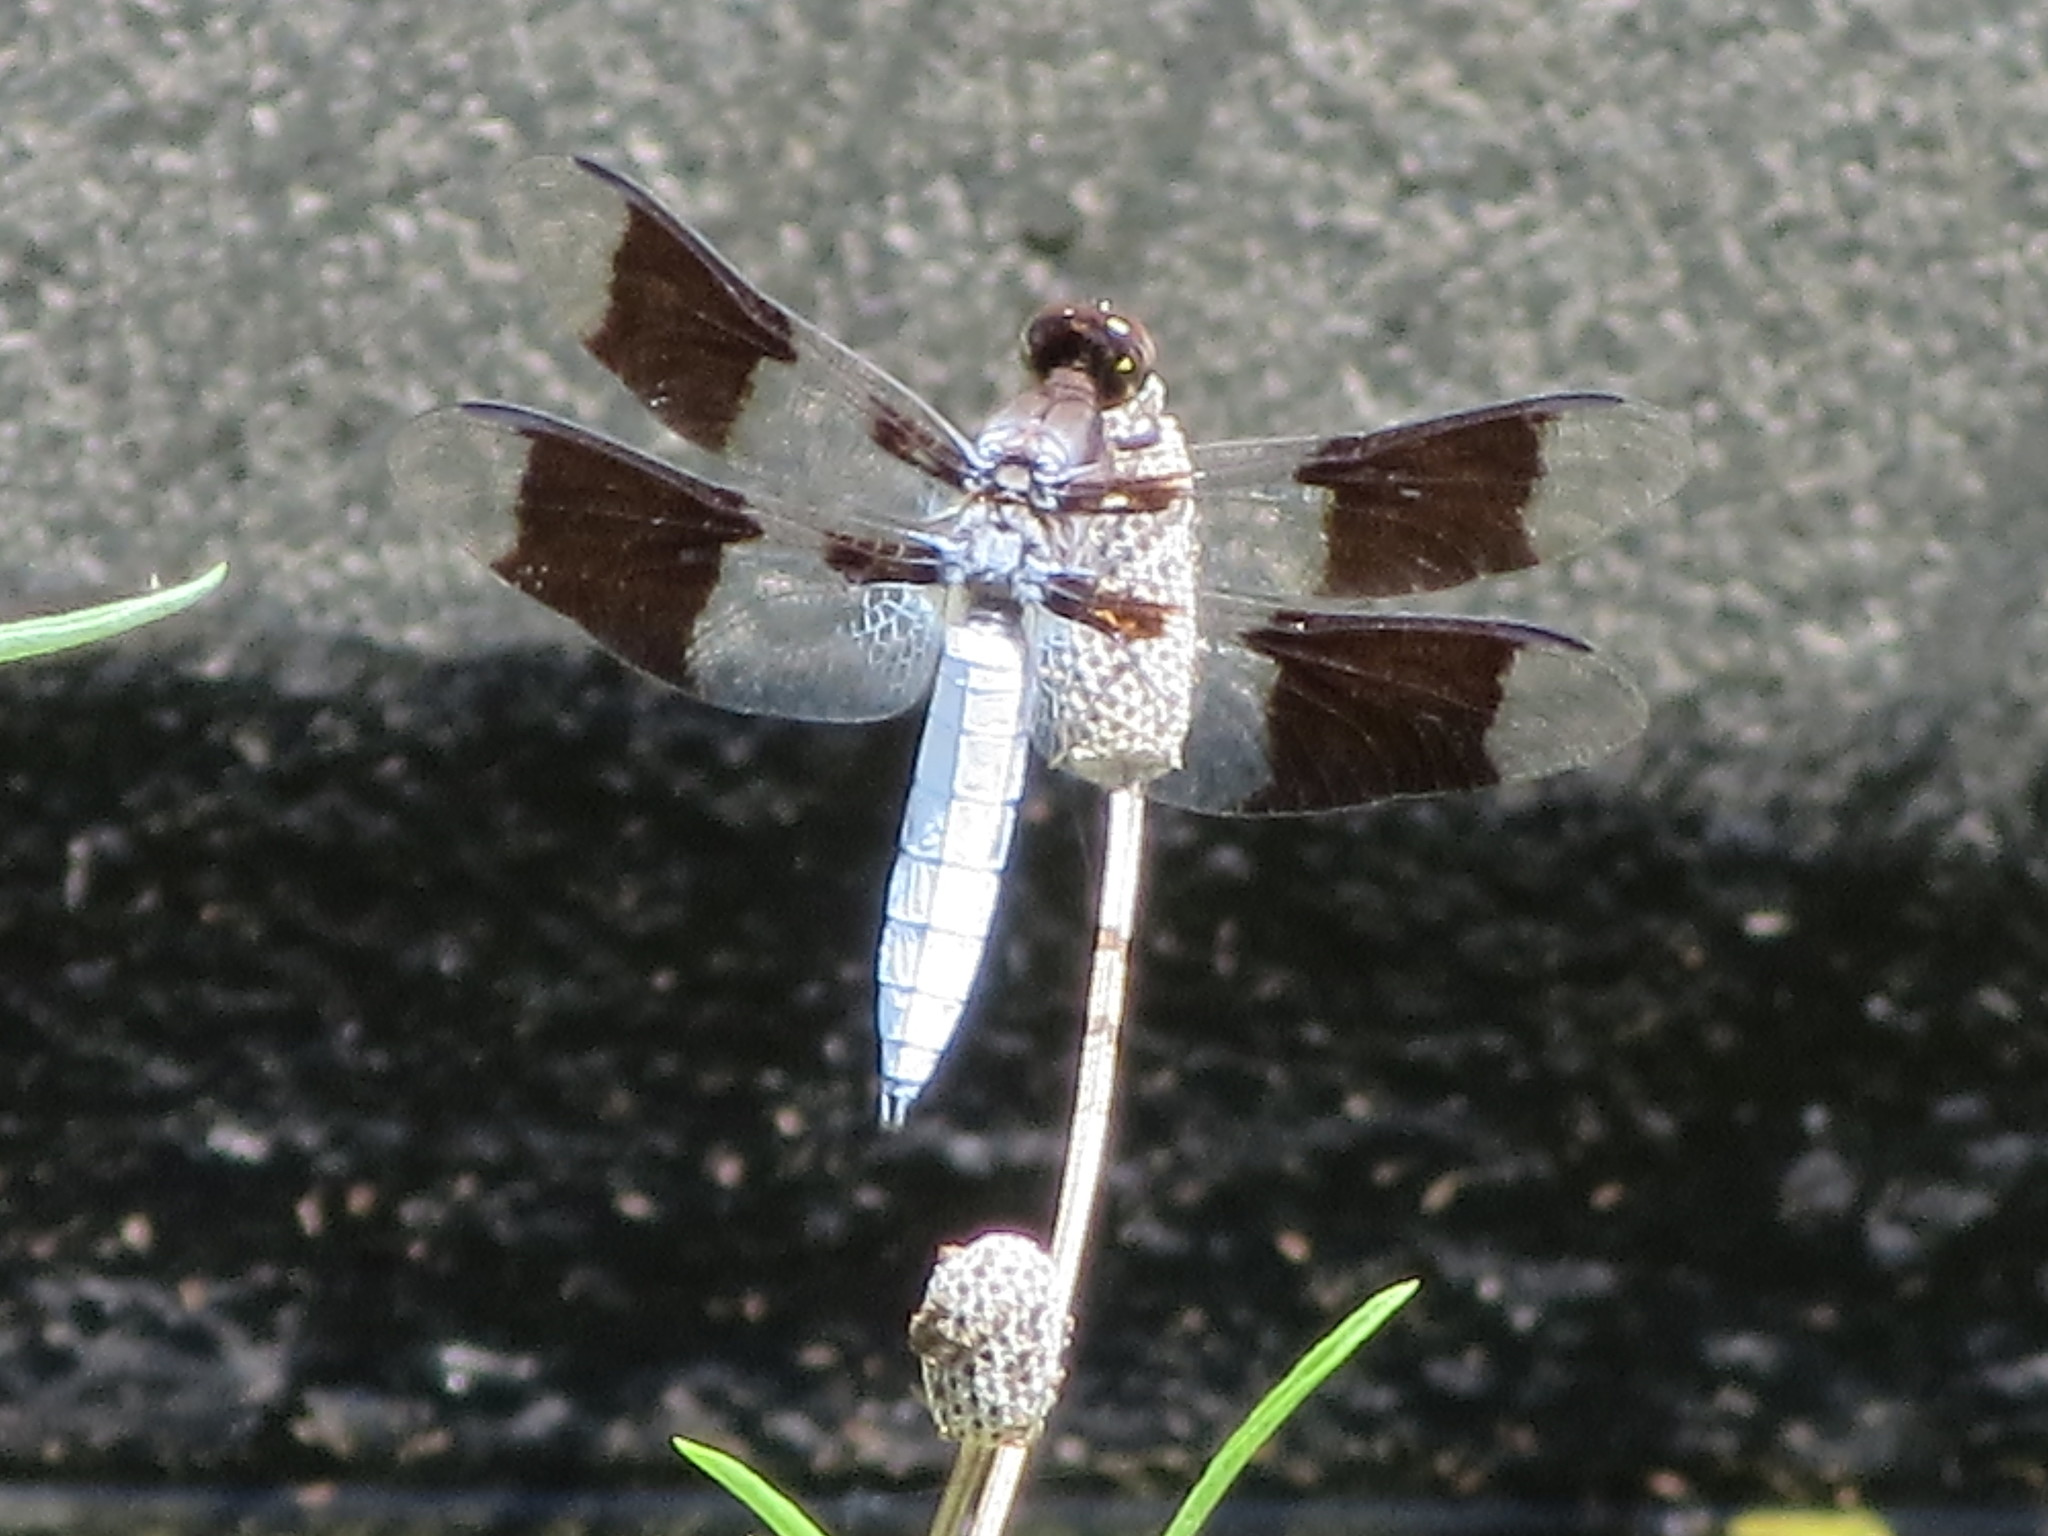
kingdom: Animalia
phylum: Arthropoda
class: Insecta
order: Odonata
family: Libellulidae
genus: Plathemis
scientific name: Plathemis lydia
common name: Common whitetail
